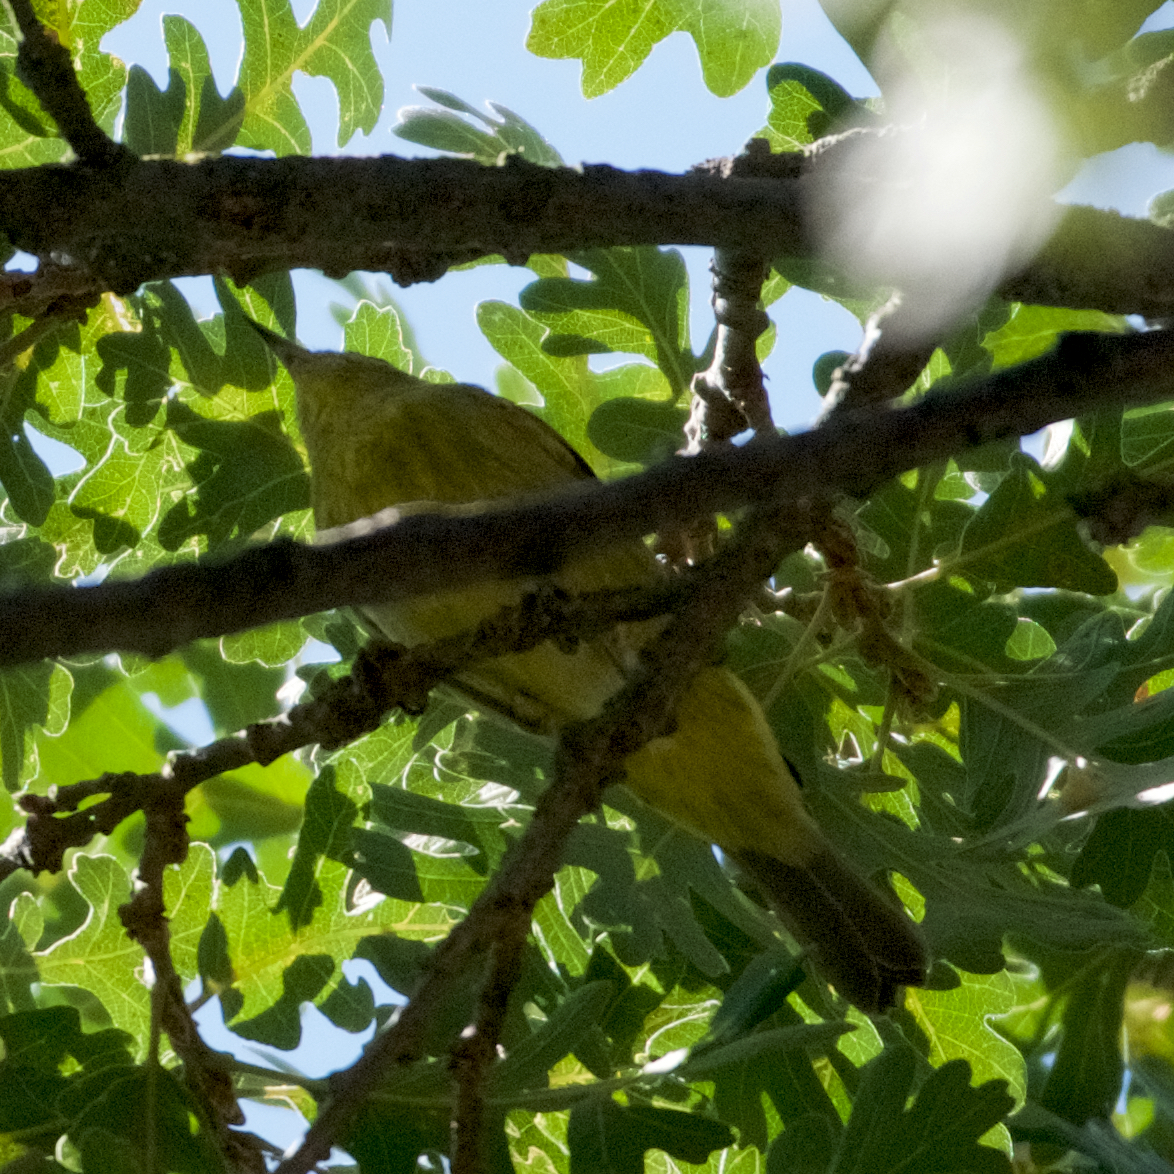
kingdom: Animalia
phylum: Chordata
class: Aves
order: Passeriformes
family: Parulidae
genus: Leiothlypis
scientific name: Leiothlypis celata
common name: Orange-crowned warbler
